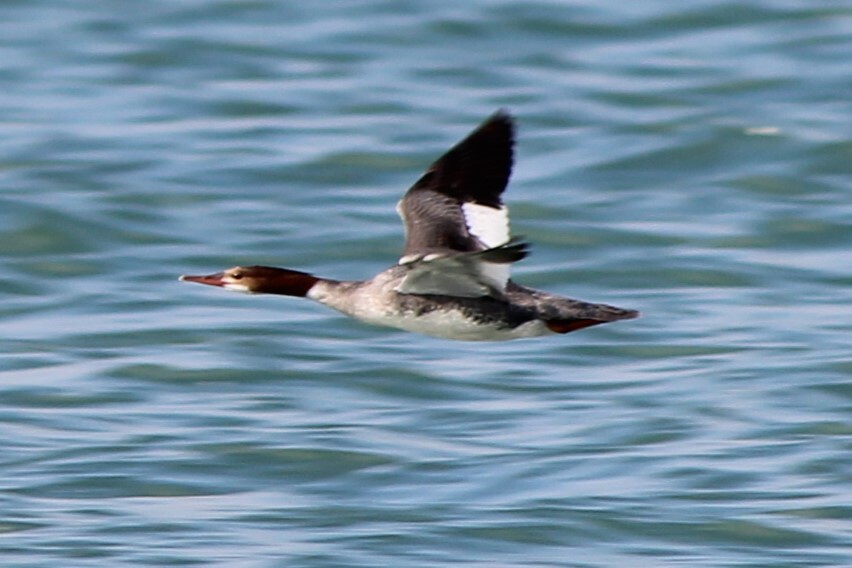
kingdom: Animalia
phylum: Chordata
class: Aves
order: Anseriformes
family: Anatidae
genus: Mergus
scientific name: Mergus merganser
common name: Common merganser
